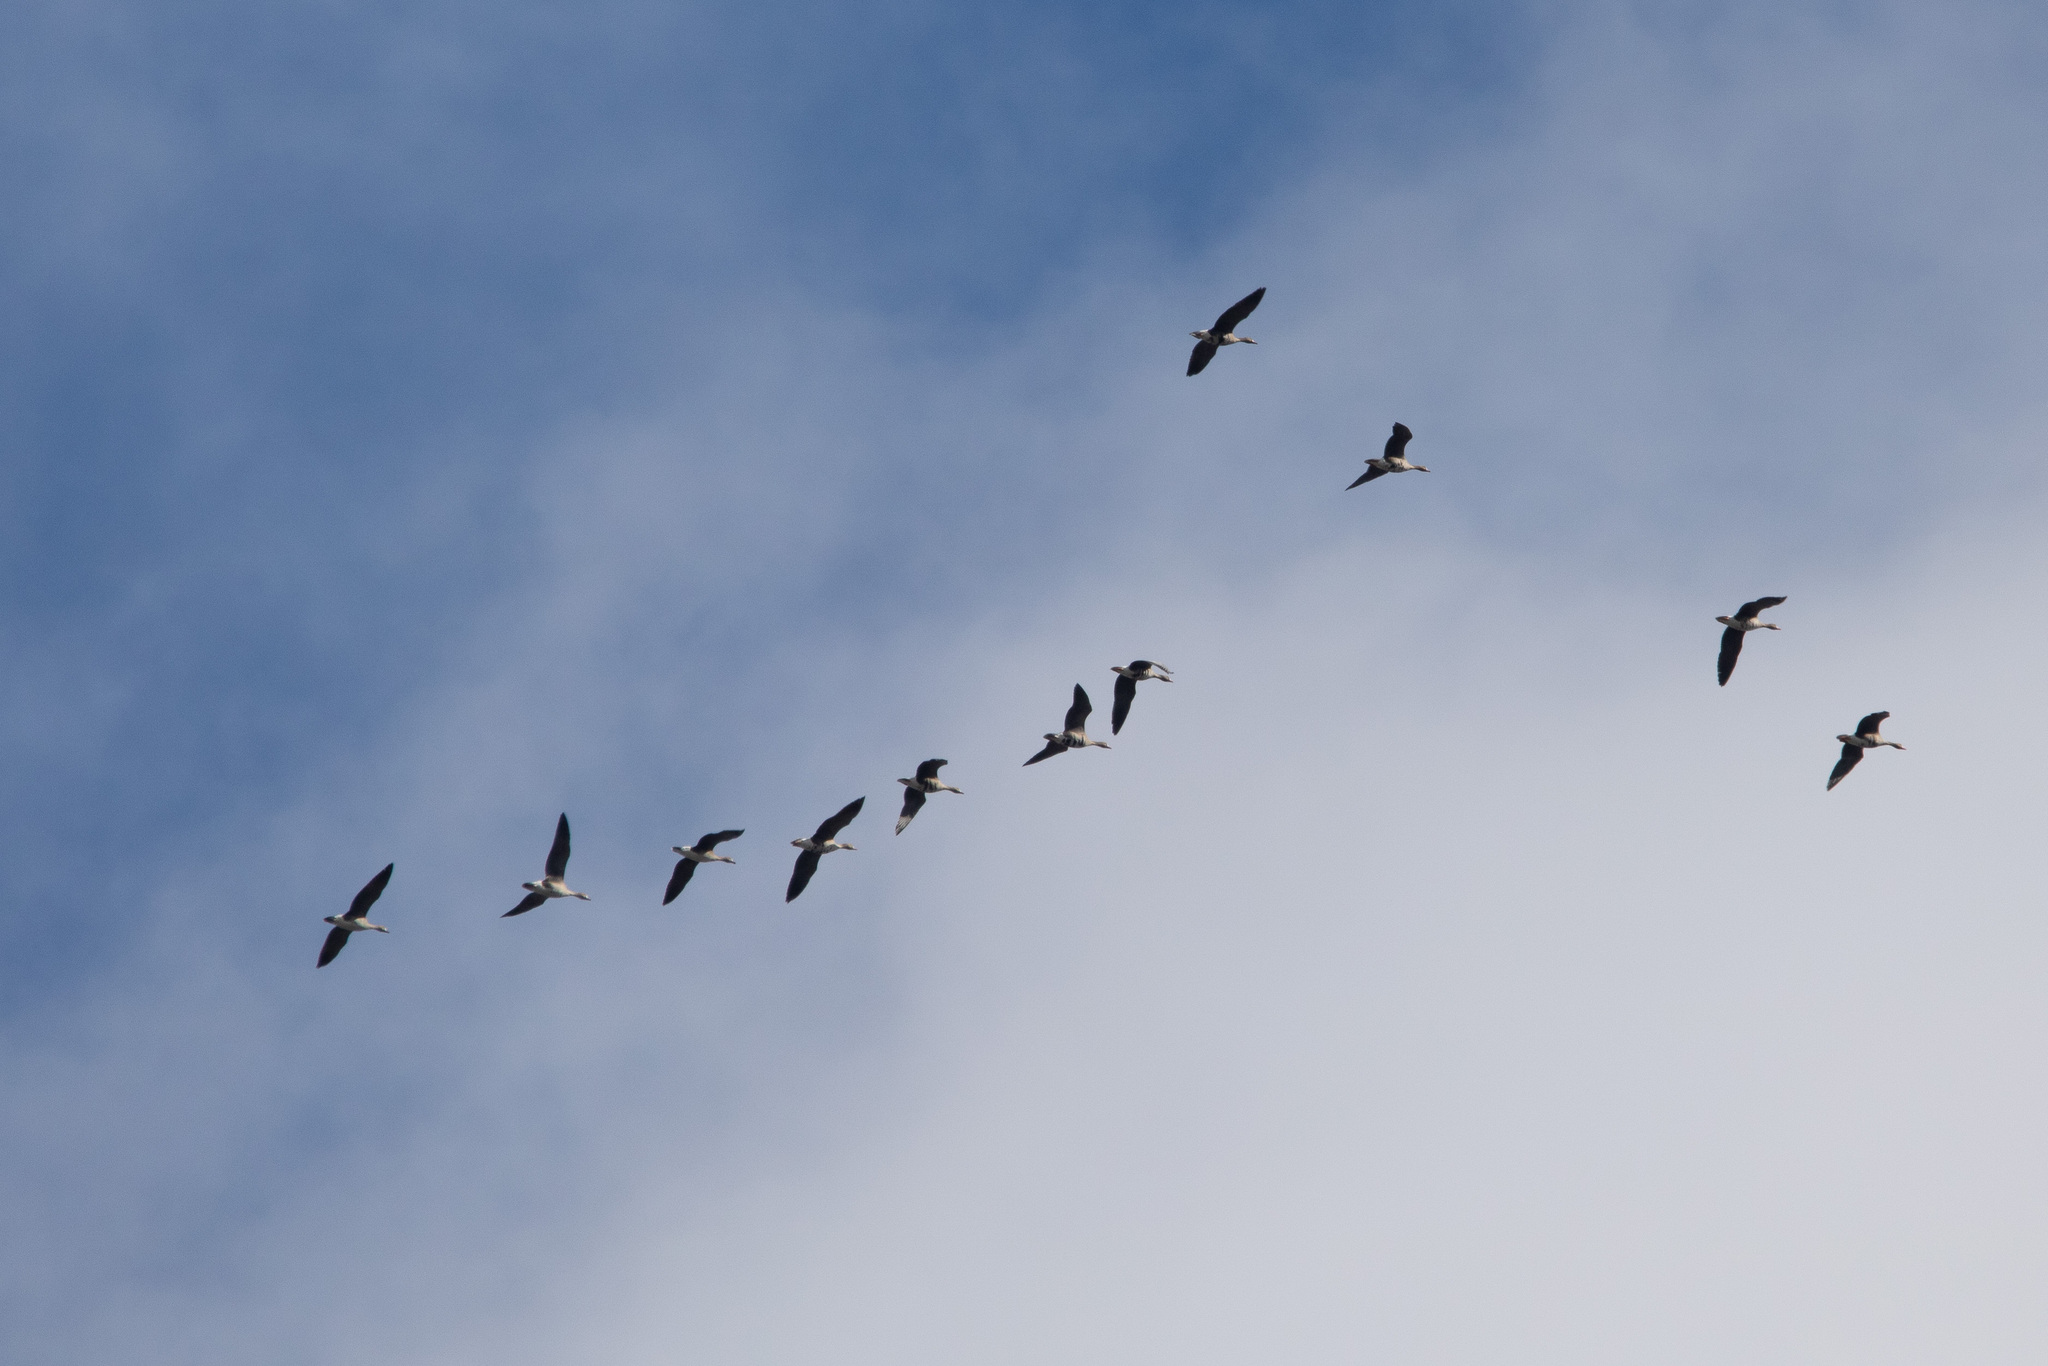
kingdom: Animalia
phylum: Chordata
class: Aves
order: Anseriformes
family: Anatidae
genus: Anser
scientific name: Anser albifrons
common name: Greater white-fronted goose
